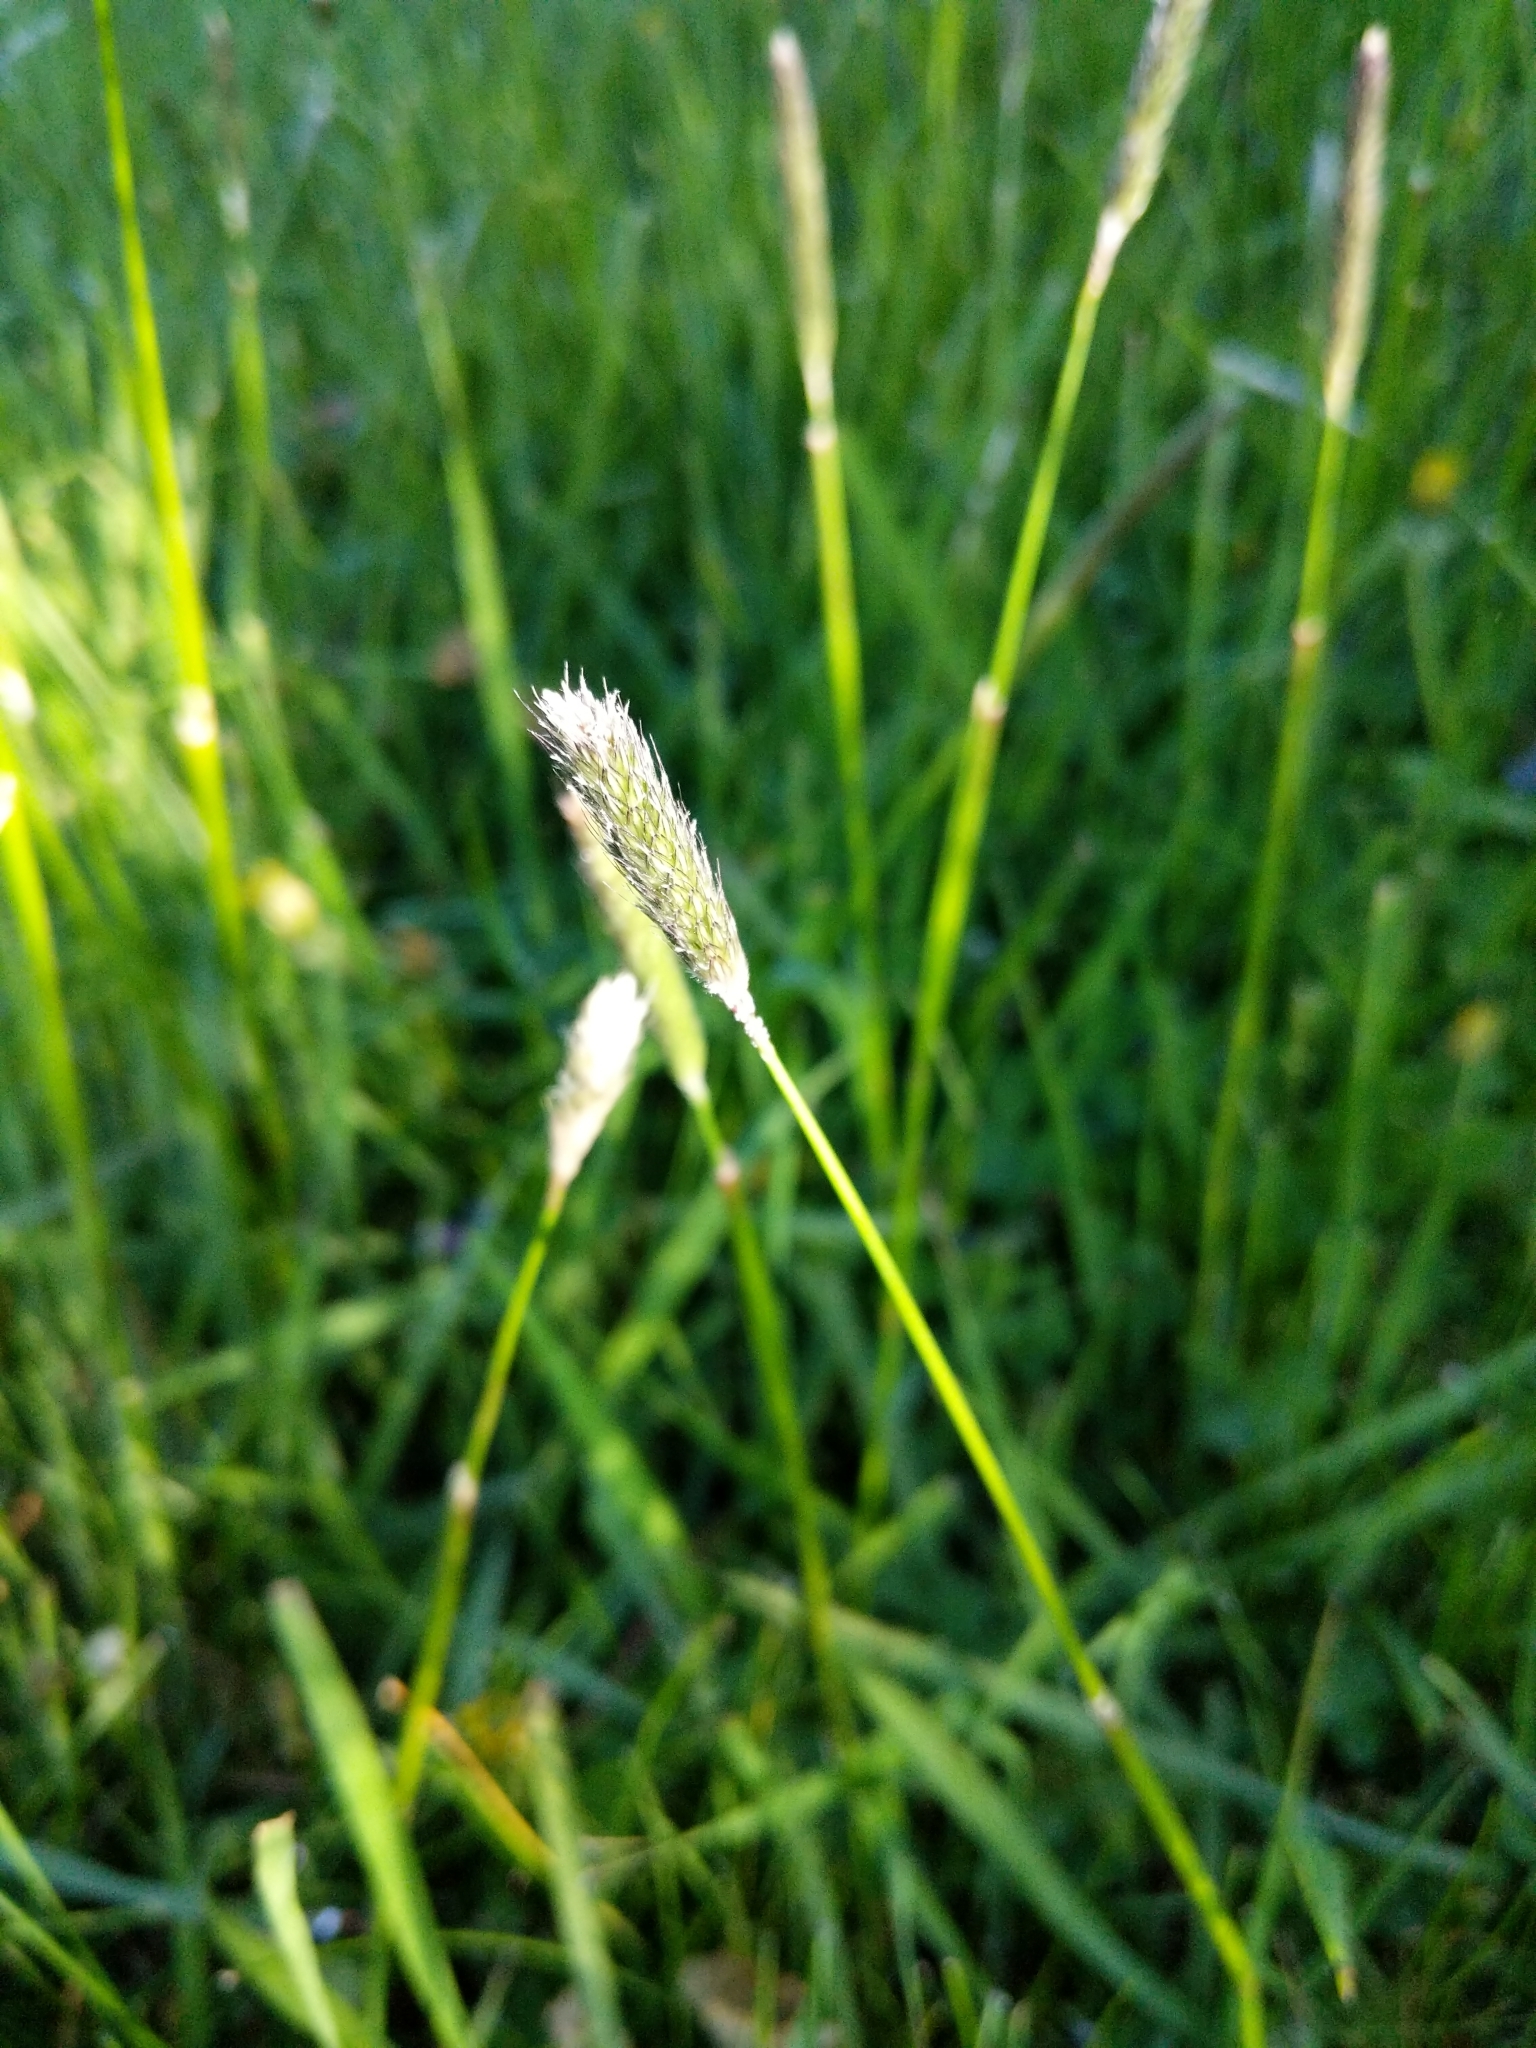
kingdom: Plantae
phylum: Tracheophyta
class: Liliopsida
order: Poales
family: Poaceae
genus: Alopecurus
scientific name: Alopecurus pratensis
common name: Meadow foxtail
